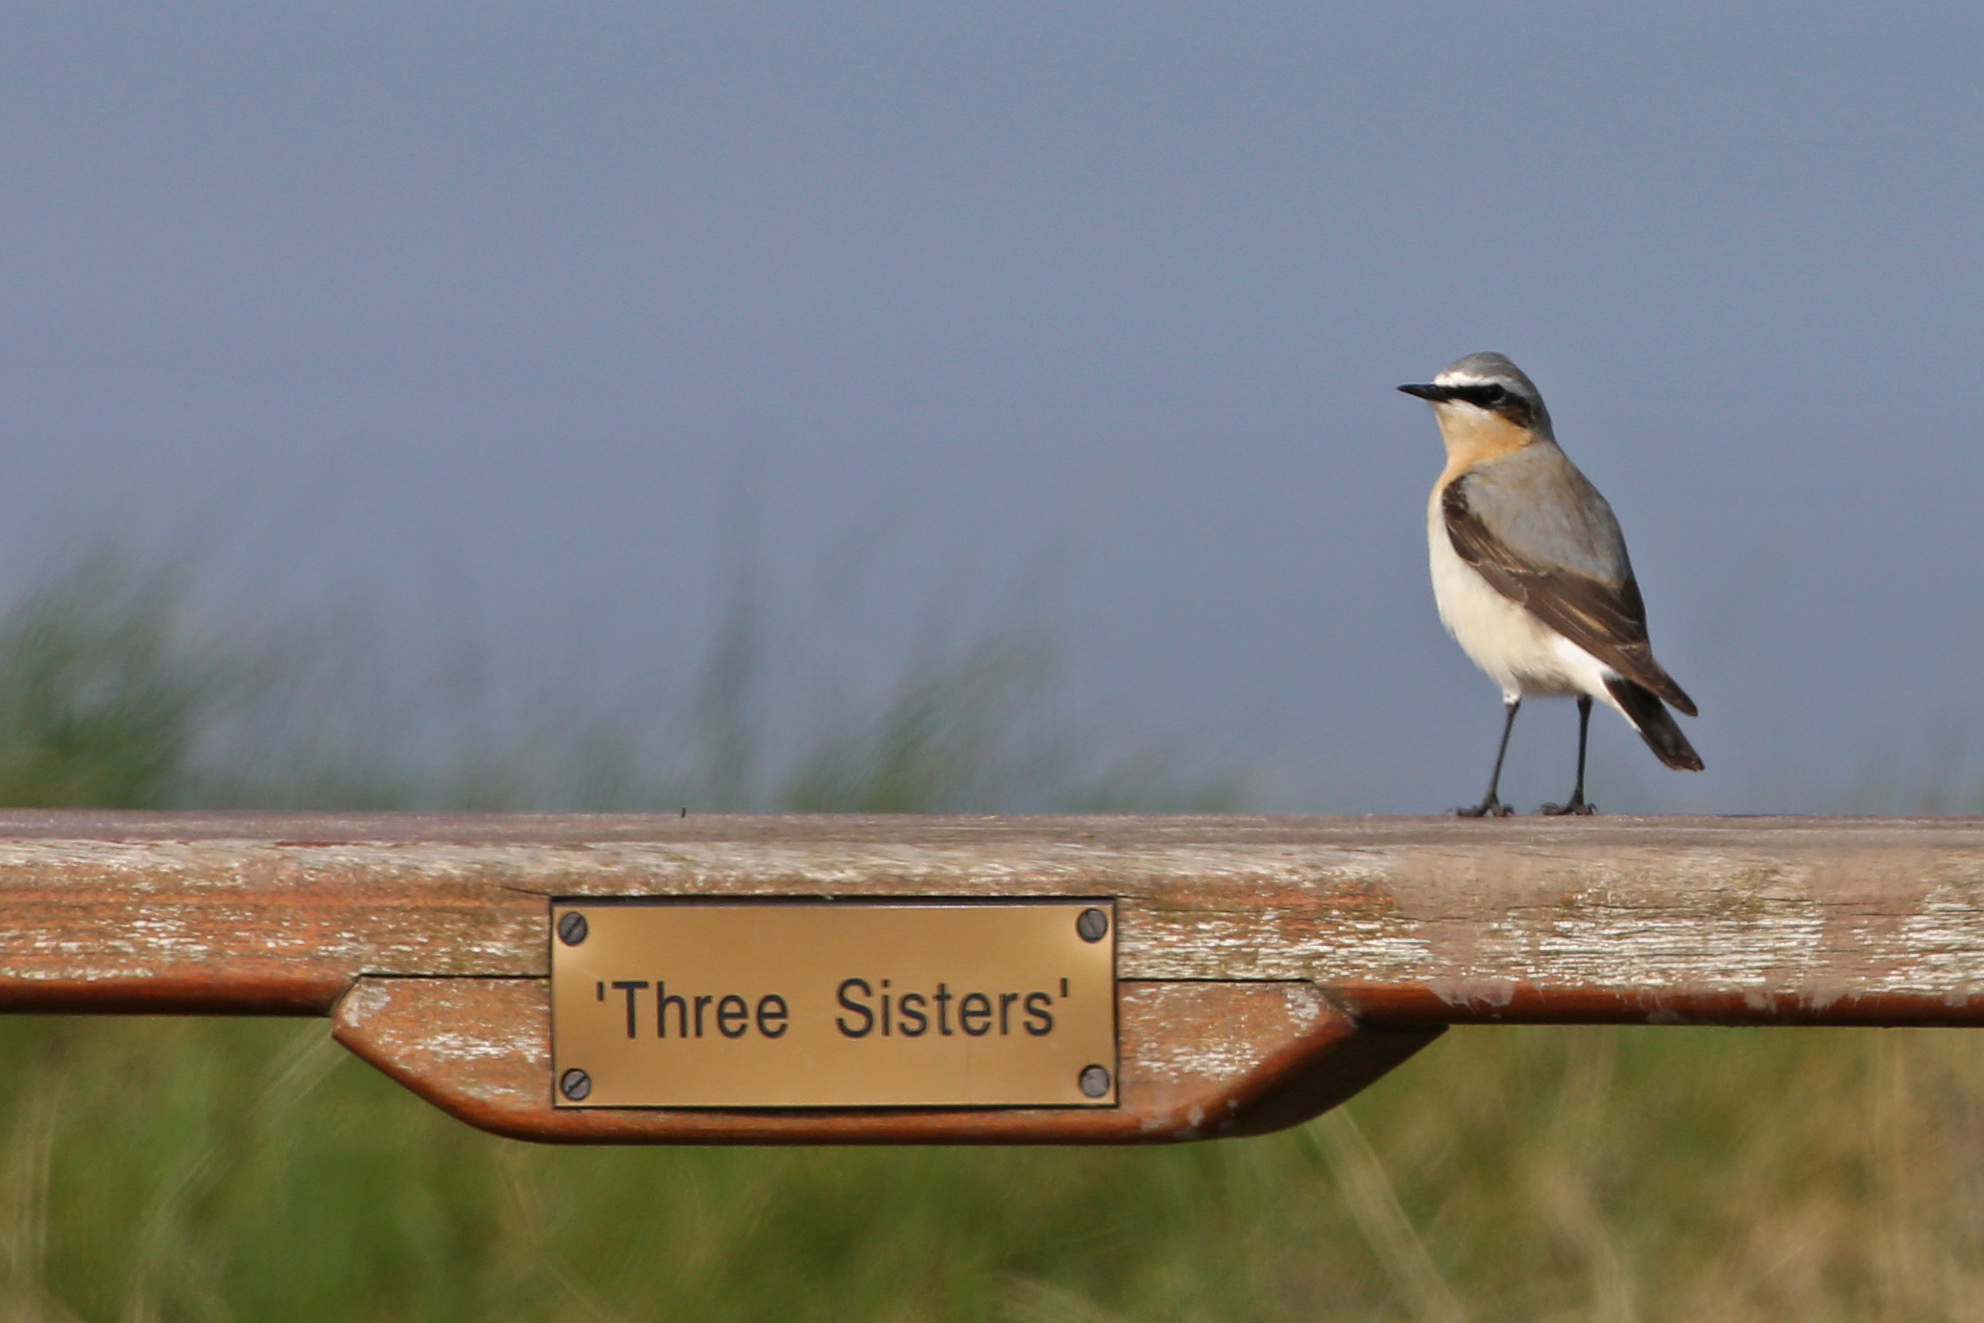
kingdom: Animalia
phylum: Chordata
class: Aves
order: Passeriformes
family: Muscicapidae
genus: Oenanthe
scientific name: Oenanthe oenanthe
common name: Northern wheatear
